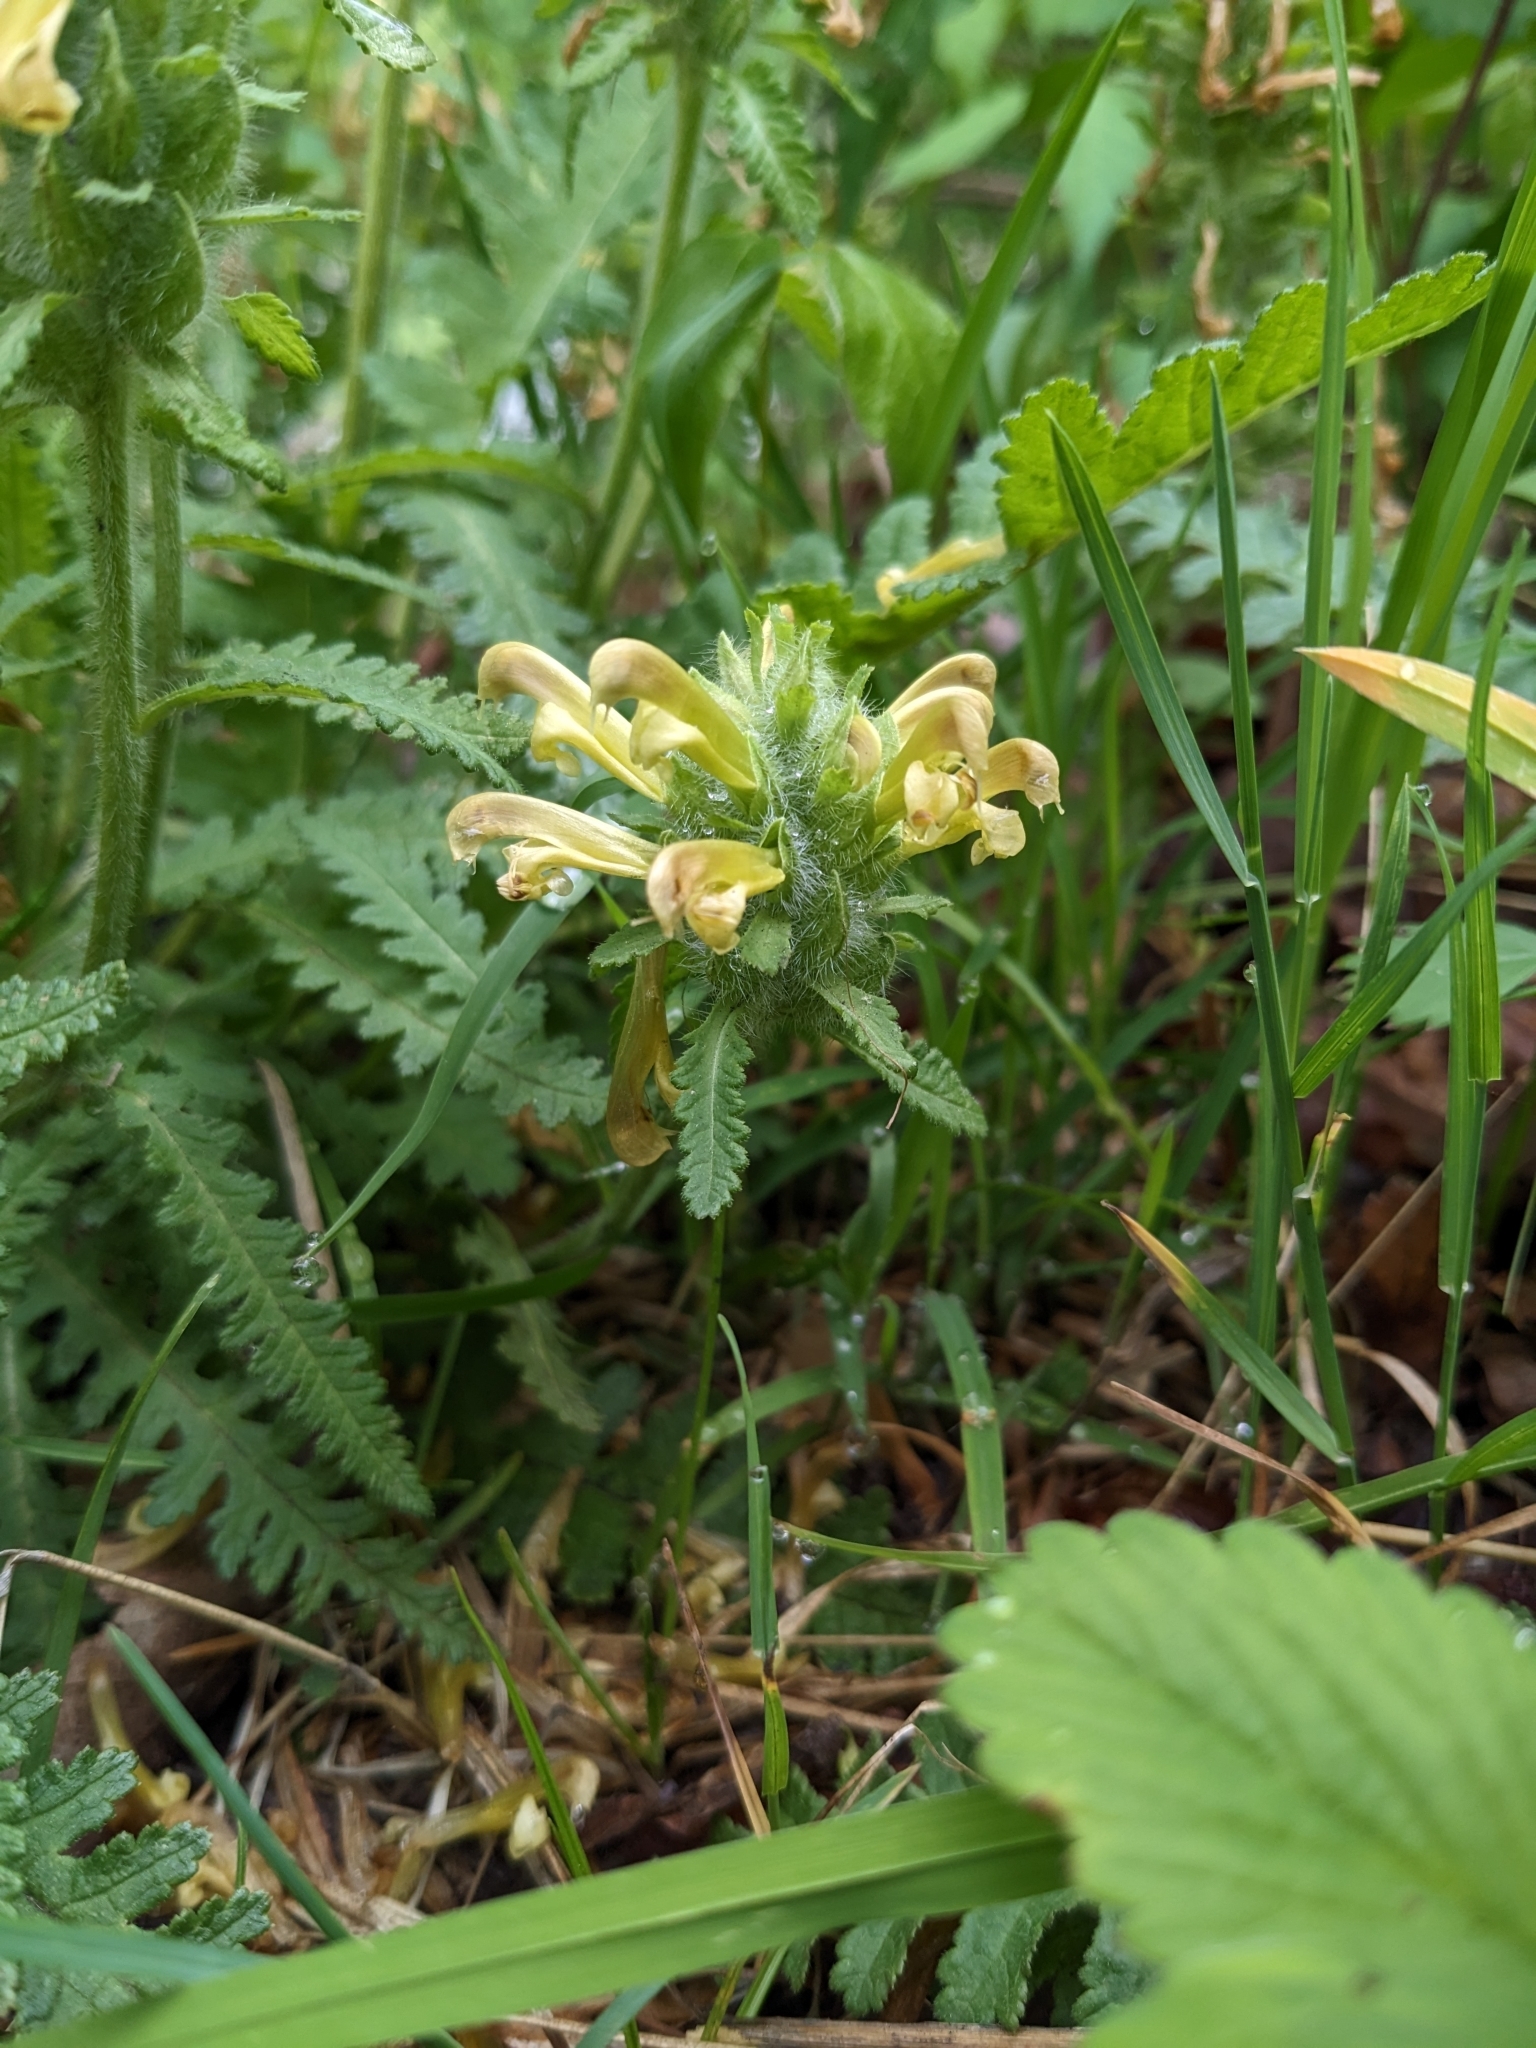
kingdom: Plantae
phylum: Tracheophyta
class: Magnoliopsida
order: Lamiales
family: Orobanchaceae
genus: Pedicularis
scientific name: Pedicularis canadensis
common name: Early lousewort
